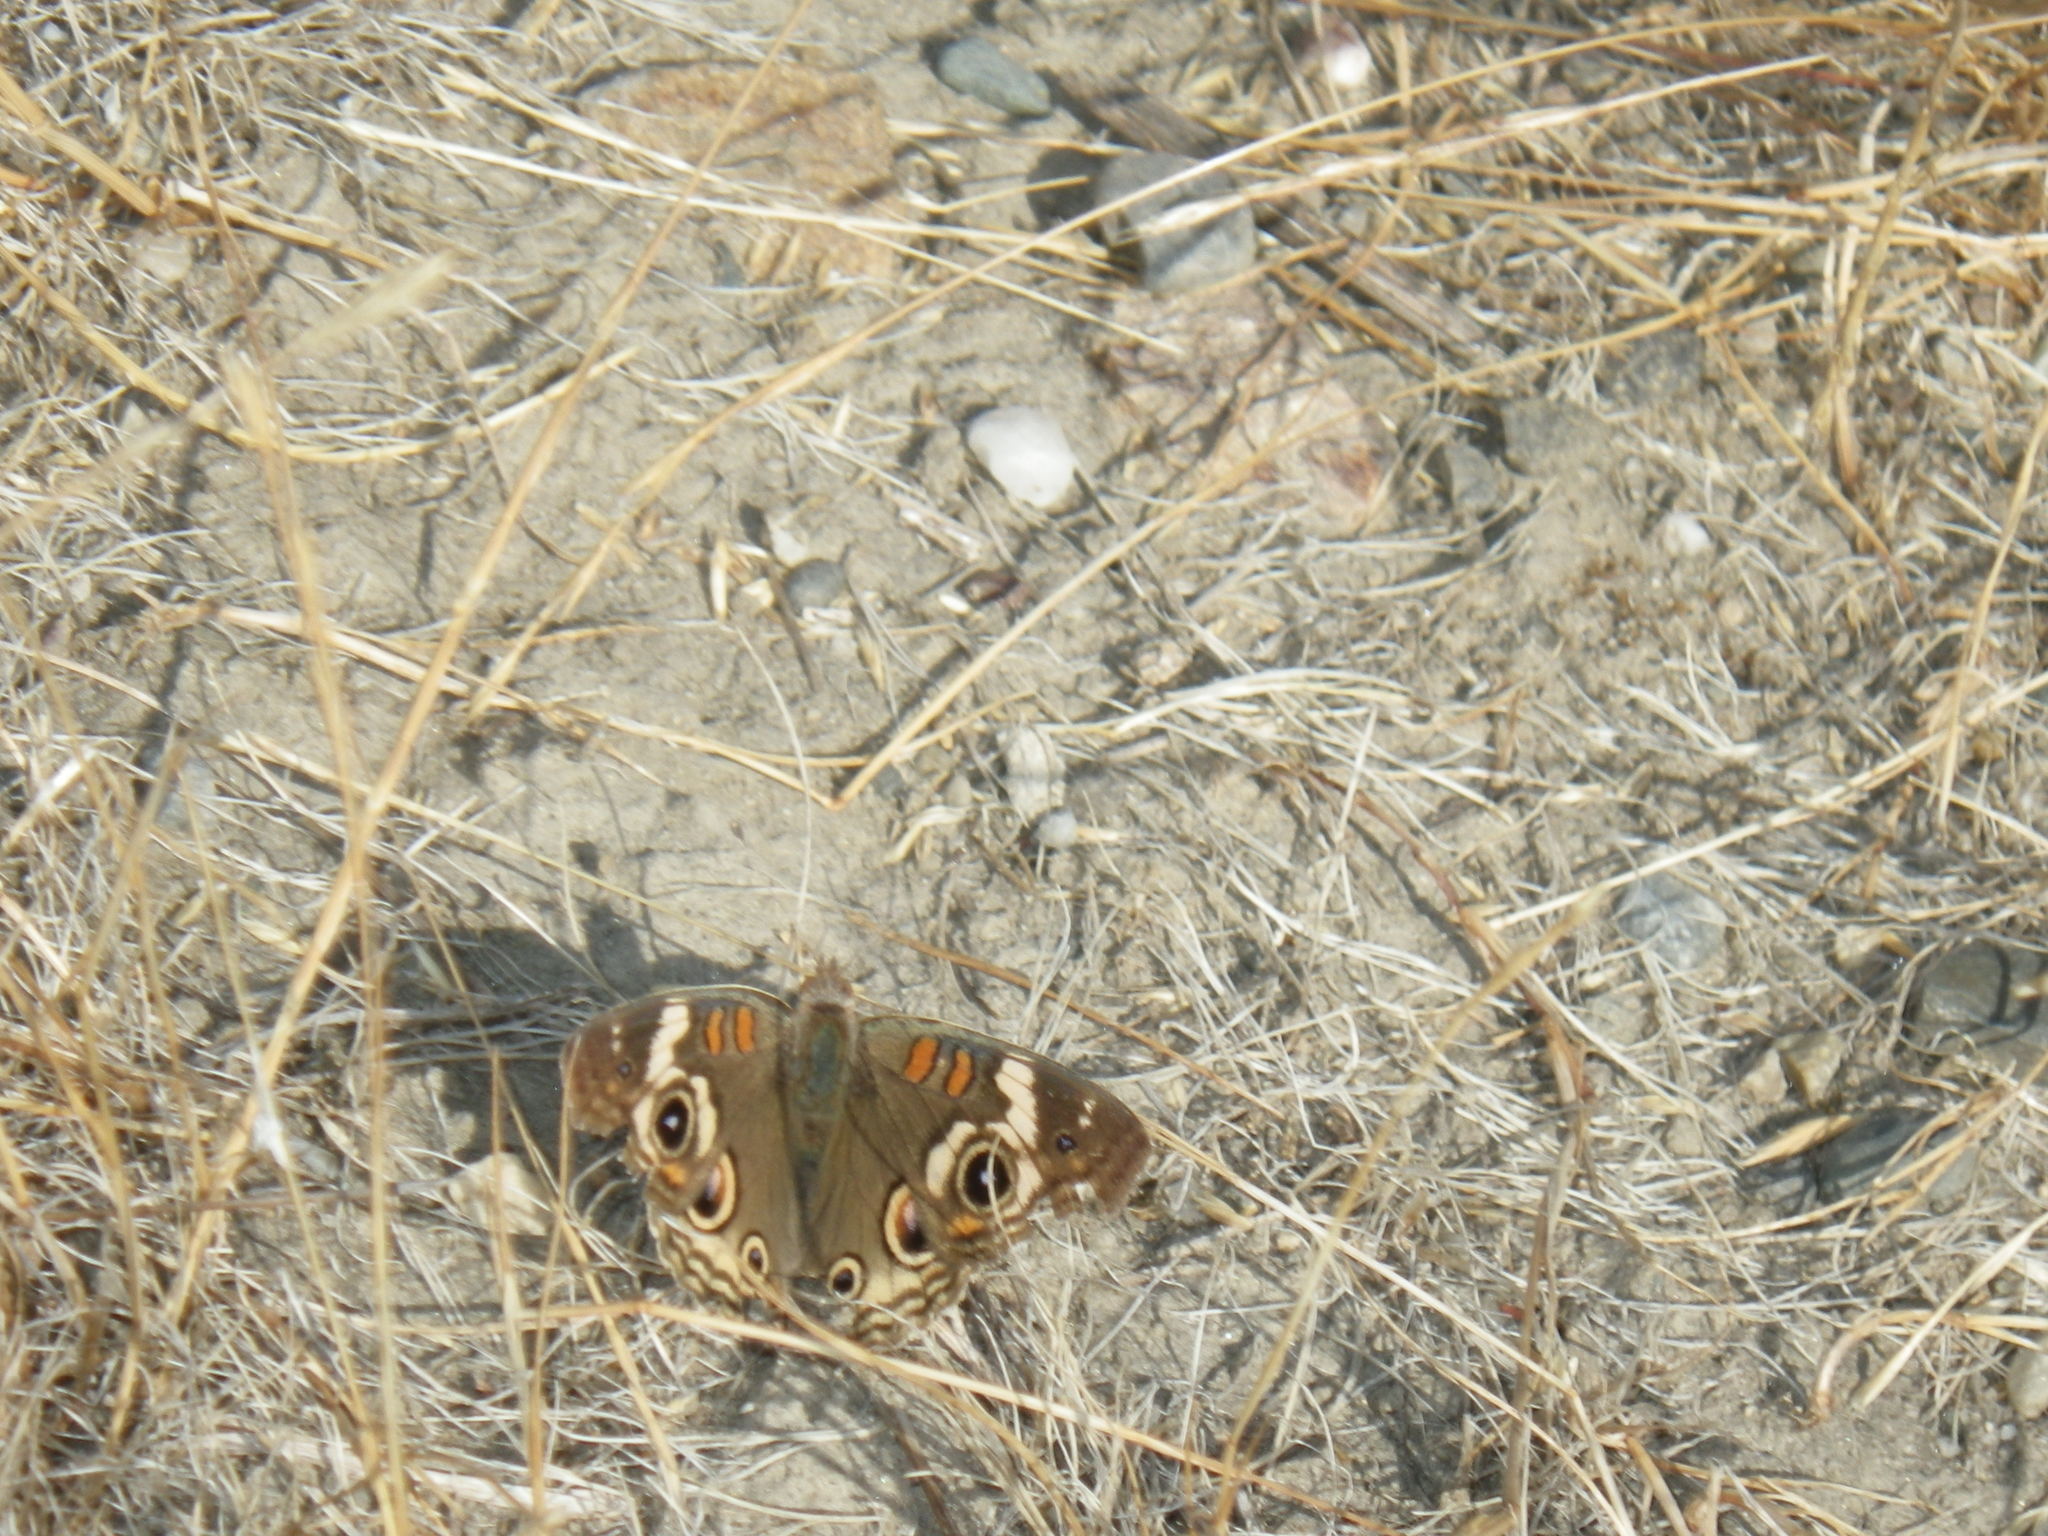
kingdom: Animalia
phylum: Arthropoda
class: Insecta
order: Lepidoptera
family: Nymphalidae
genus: Junonia
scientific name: Junonia grisea
